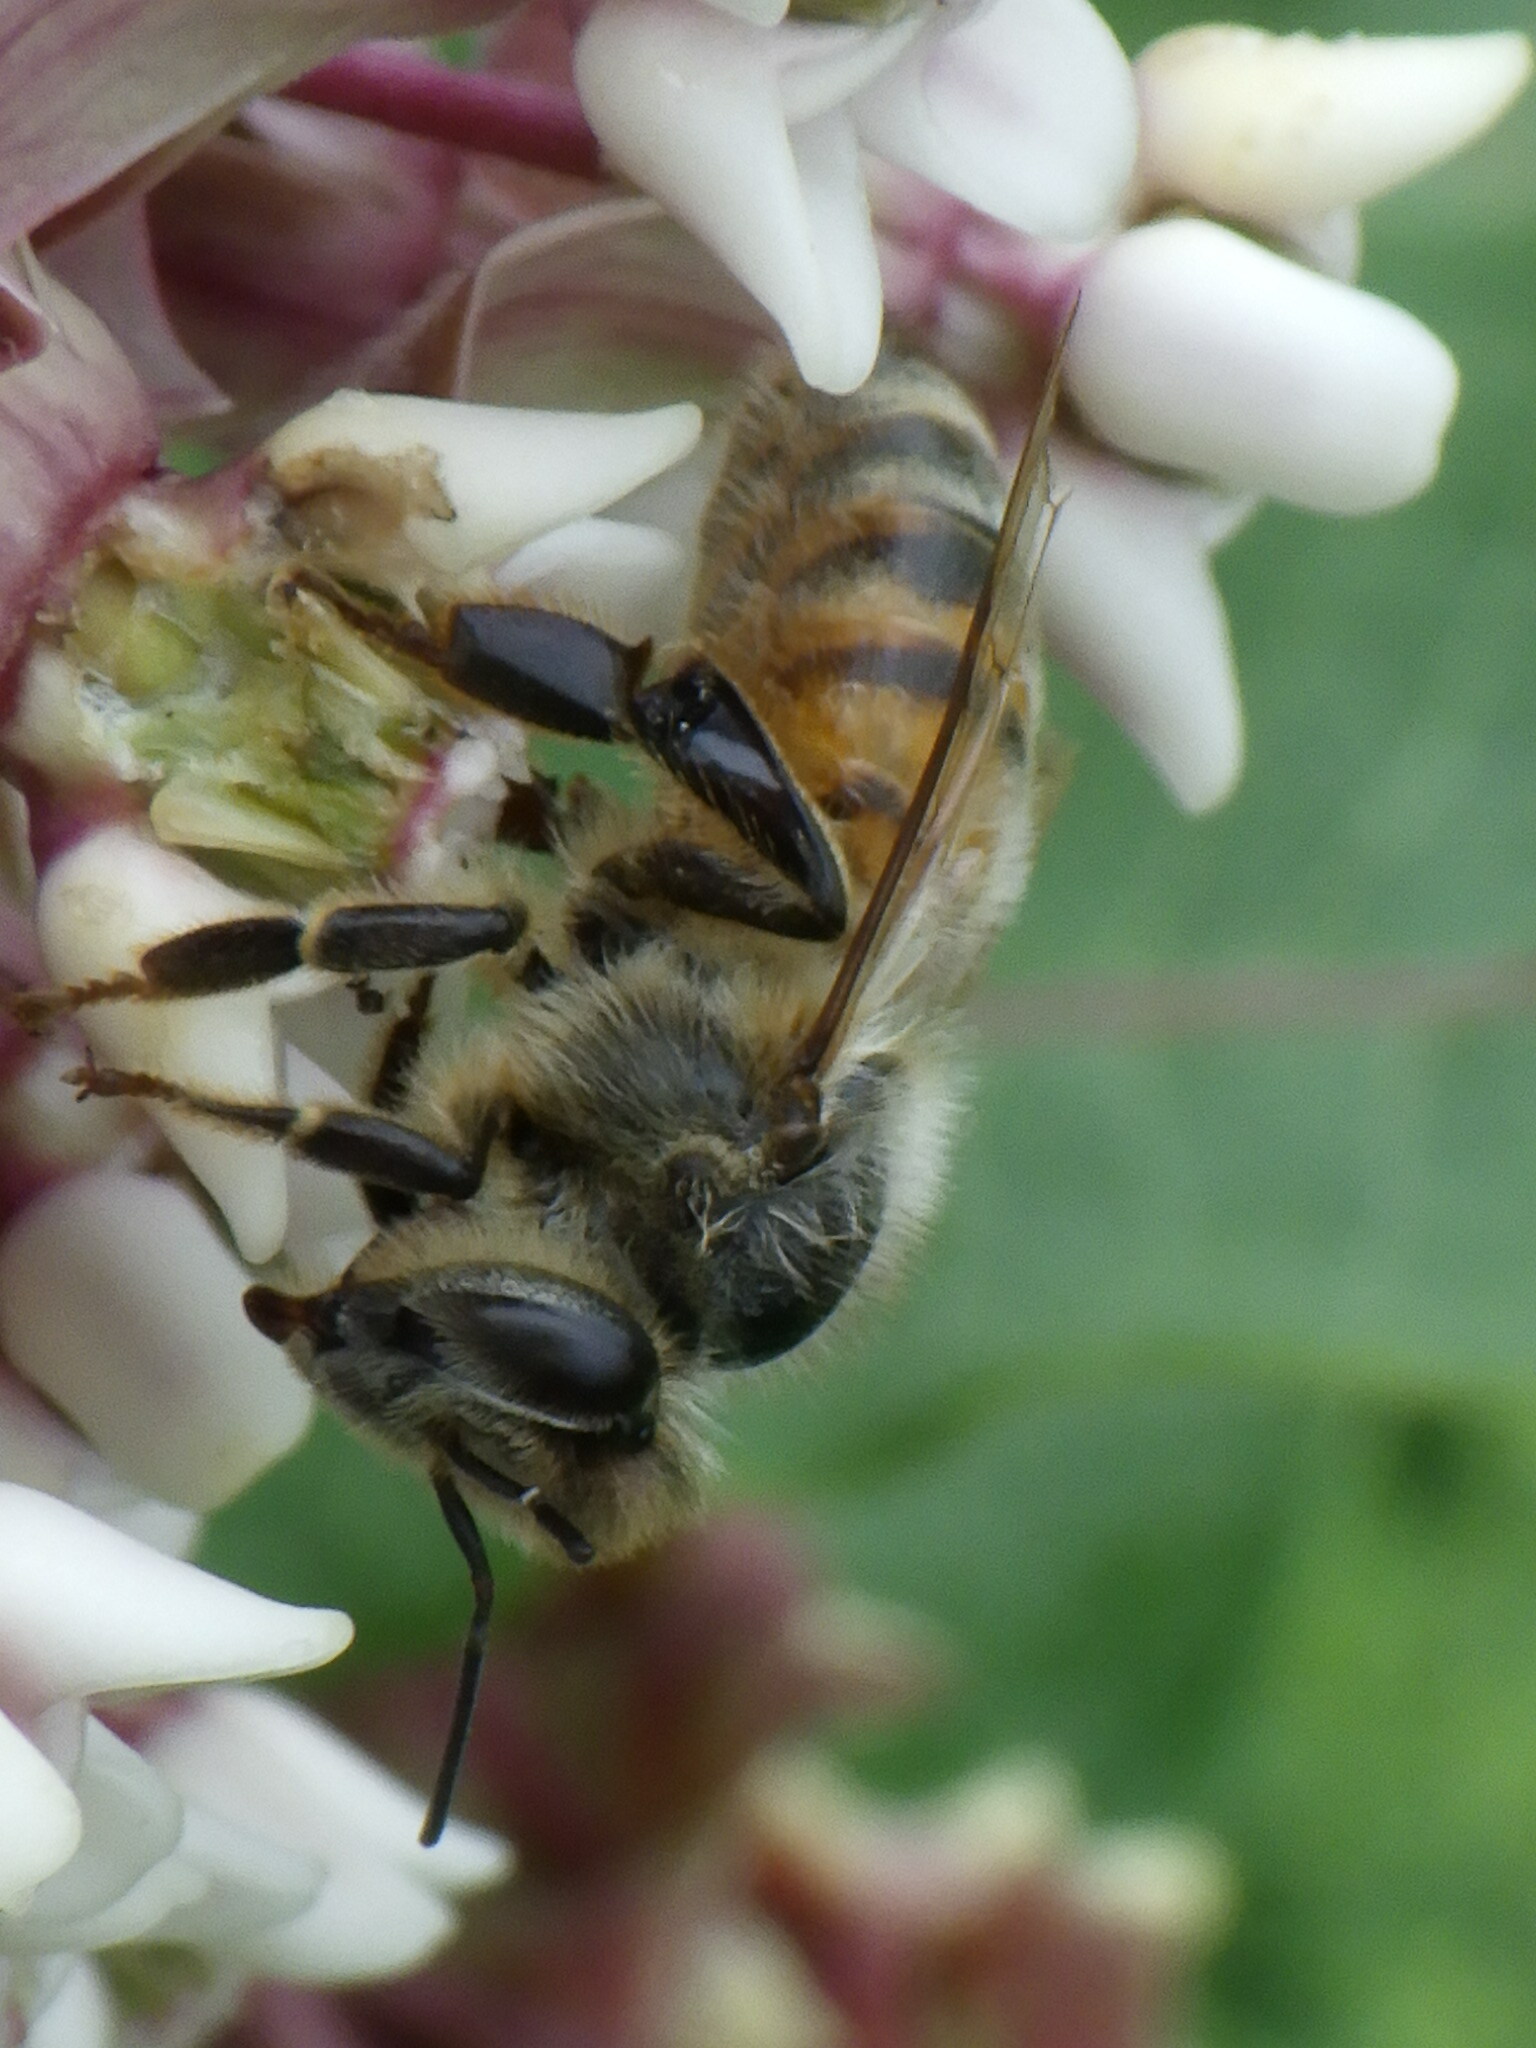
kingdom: Animalia
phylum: Arthropoda
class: Insecta
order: Hymenoptera
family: Apidae
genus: Apis
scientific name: Apis mellifera
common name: Honey bee
